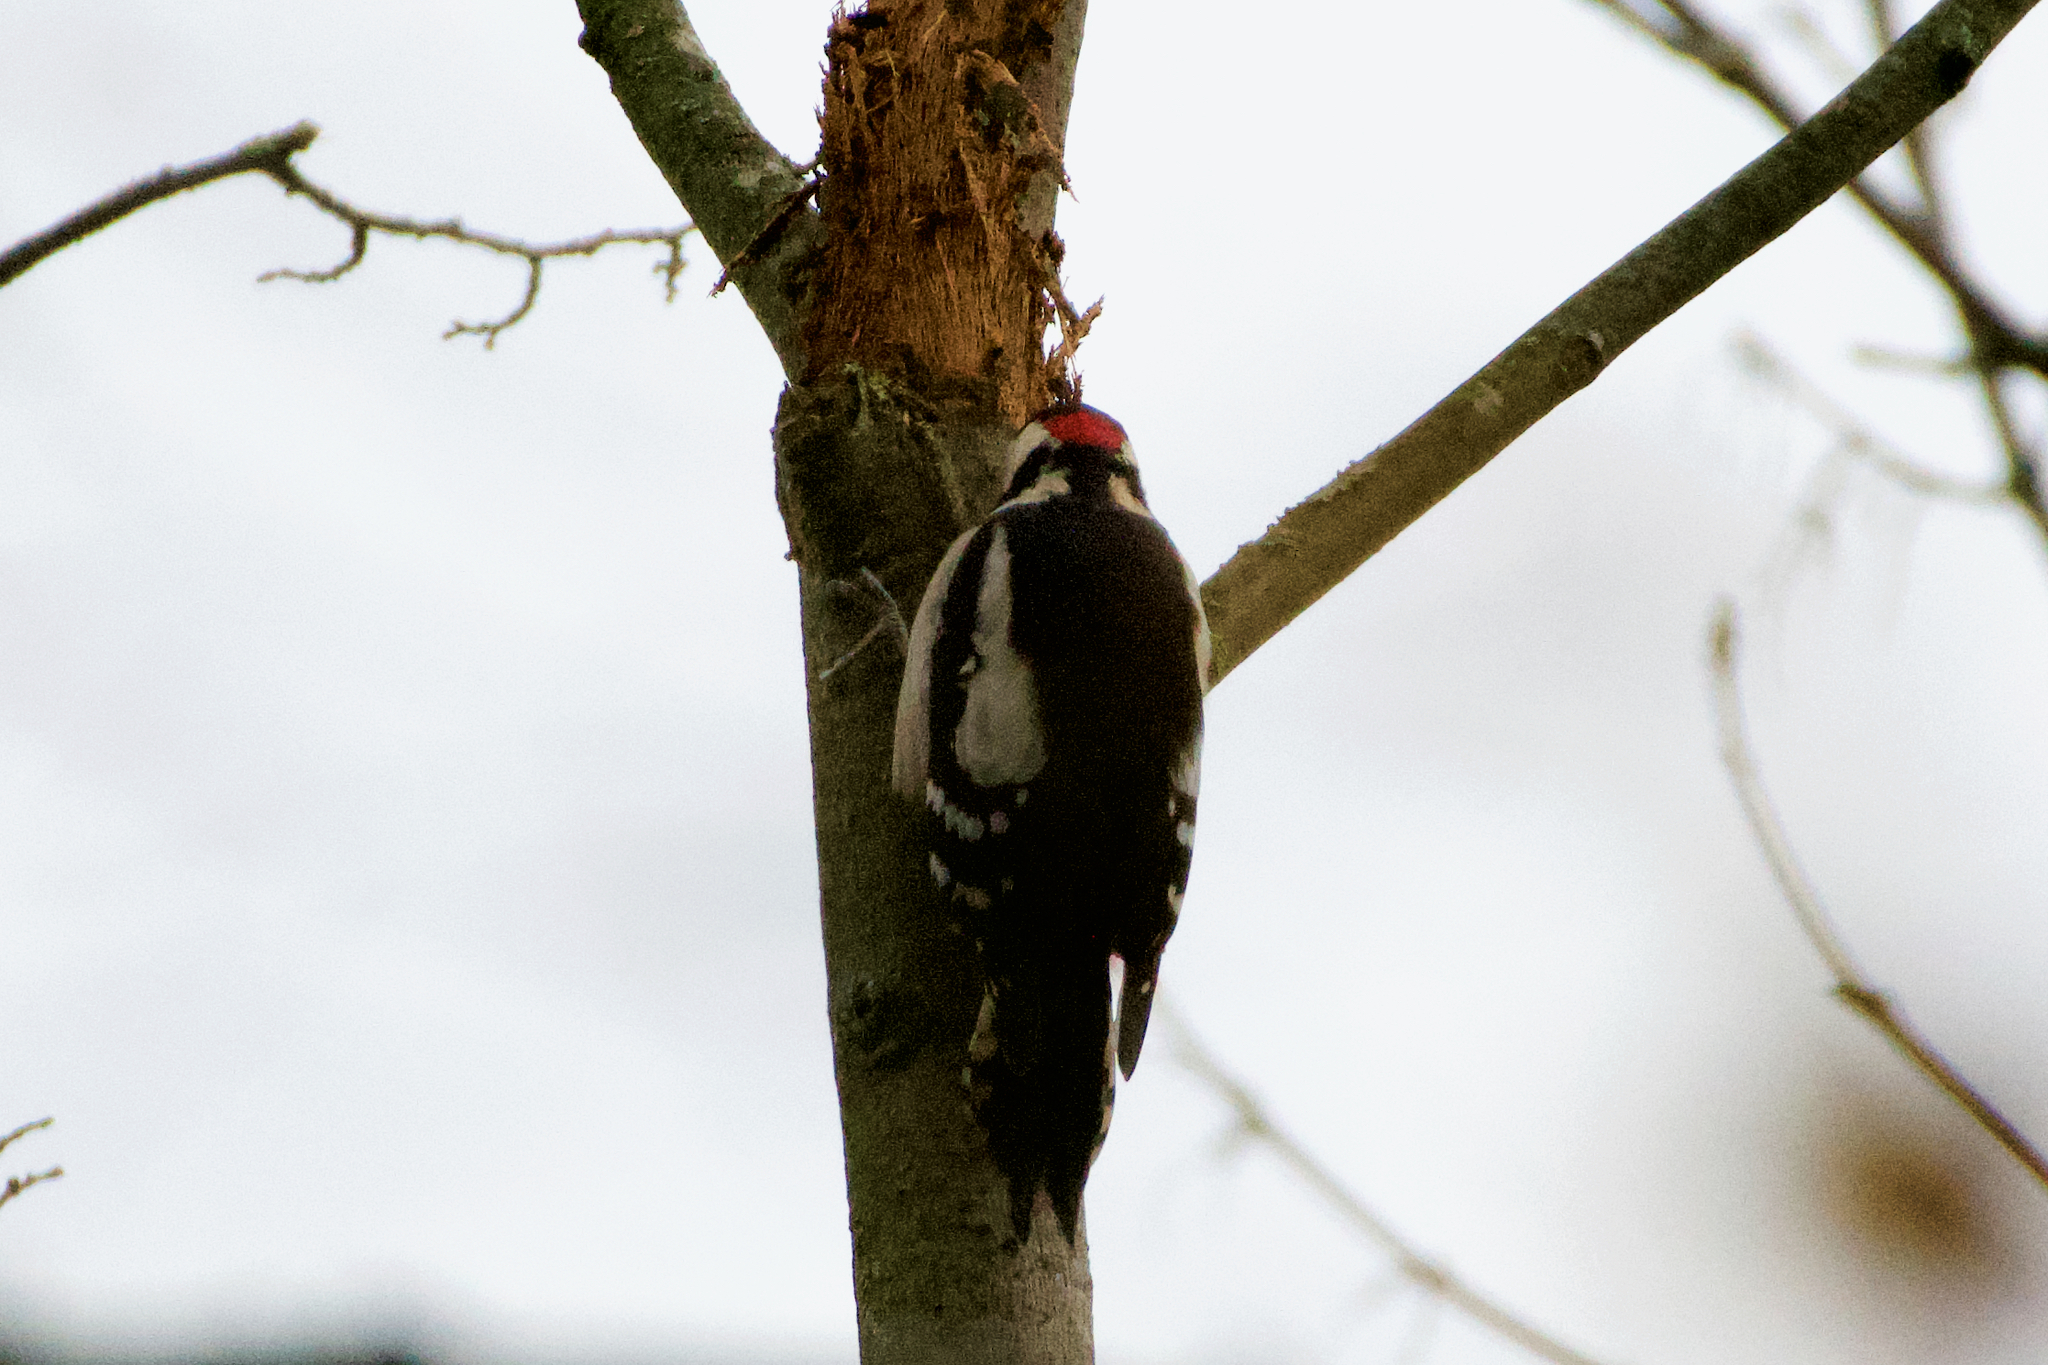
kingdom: Animalia
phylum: Chordata
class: Aves
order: Piciformes
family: Picidae
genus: Dendrocopos
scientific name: Dendrocopos major
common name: Great spotted woodpecker
